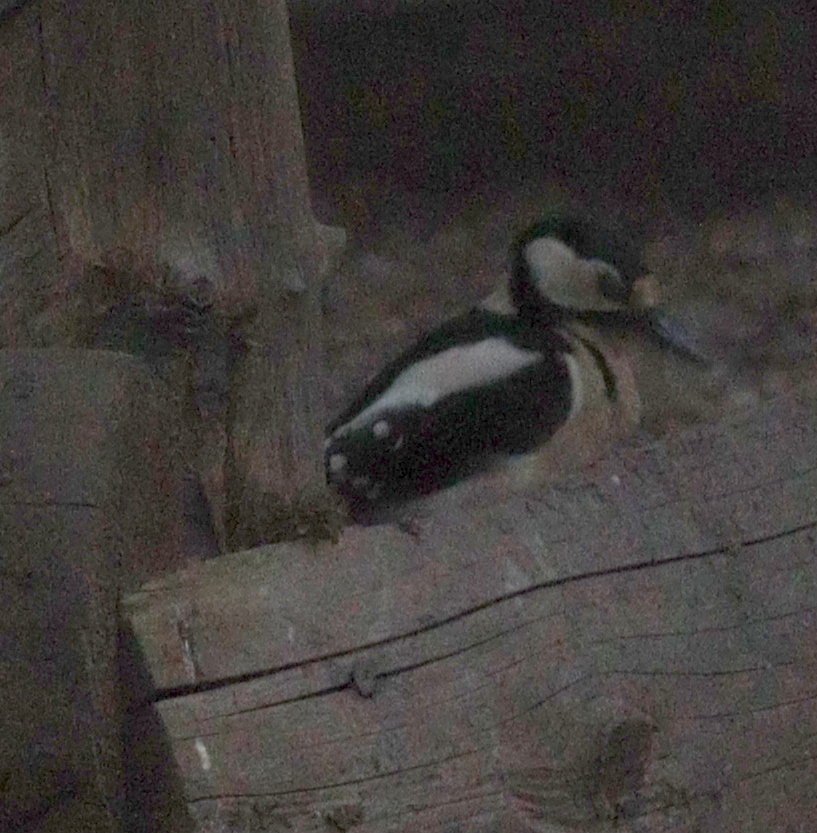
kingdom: Animalia
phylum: Chordata
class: Aves
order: Piciformes
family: Picidae
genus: Dendrocopos
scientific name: Dendrocopos major
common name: Great spotted woodpecker
